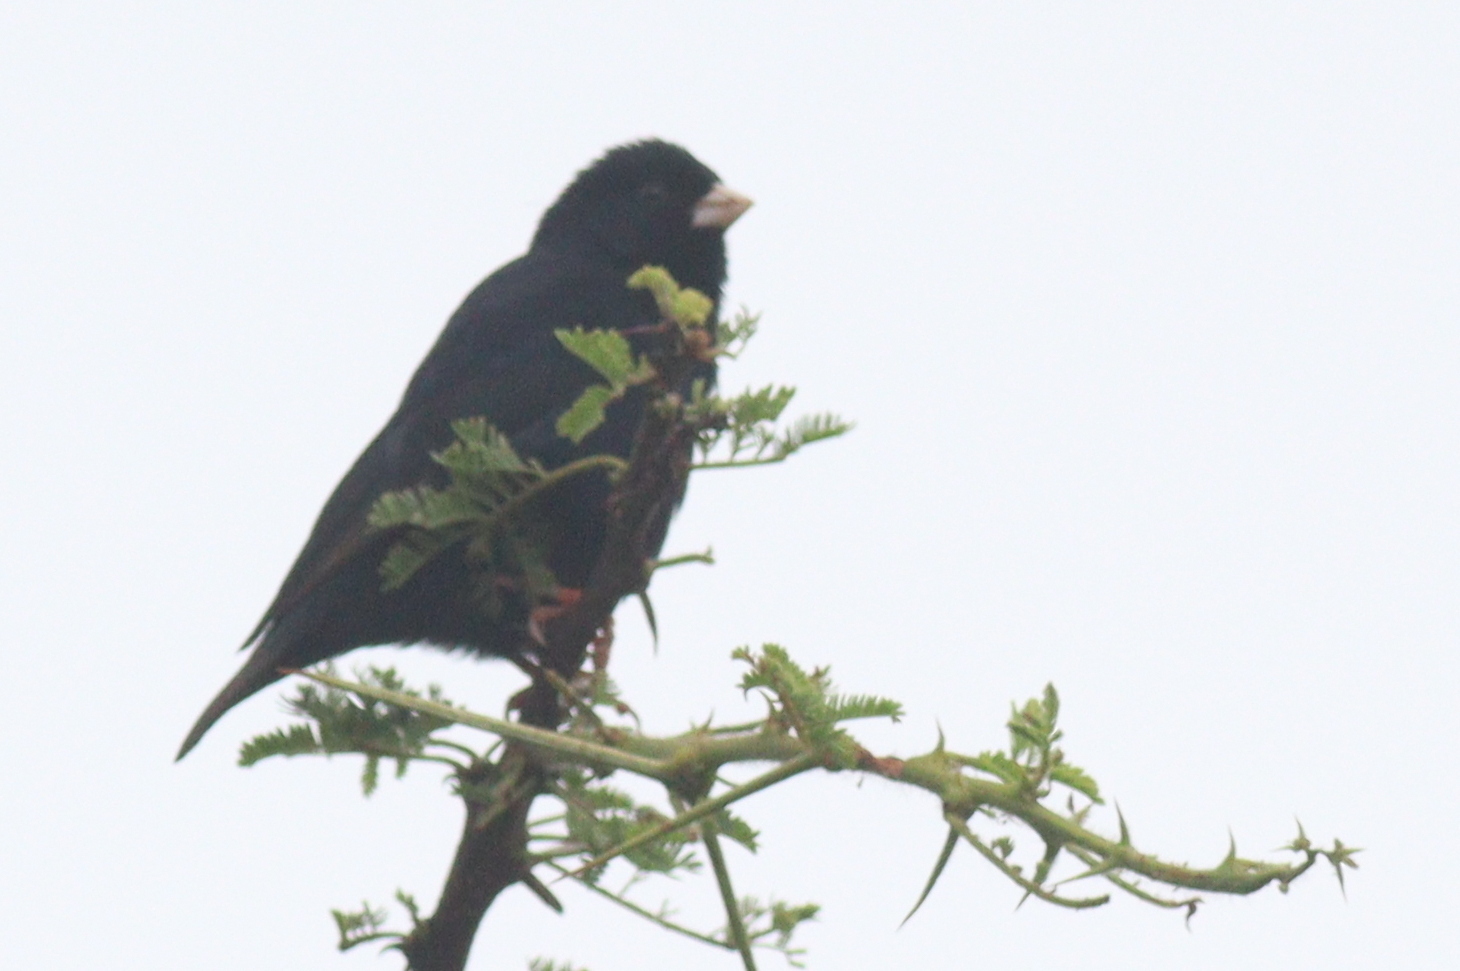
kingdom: Animalia
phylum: Chordata
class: Aves
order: Passeriformes
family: Viduidae
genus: Vidua
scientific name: Vidua chalybeata
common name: Village indigobird
